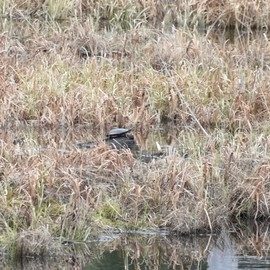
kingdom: Animalia
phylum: Chordata
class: Testudines
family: Emydidae
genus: Chrysemys
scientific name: Chrysemys picta
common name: Painted turtle
